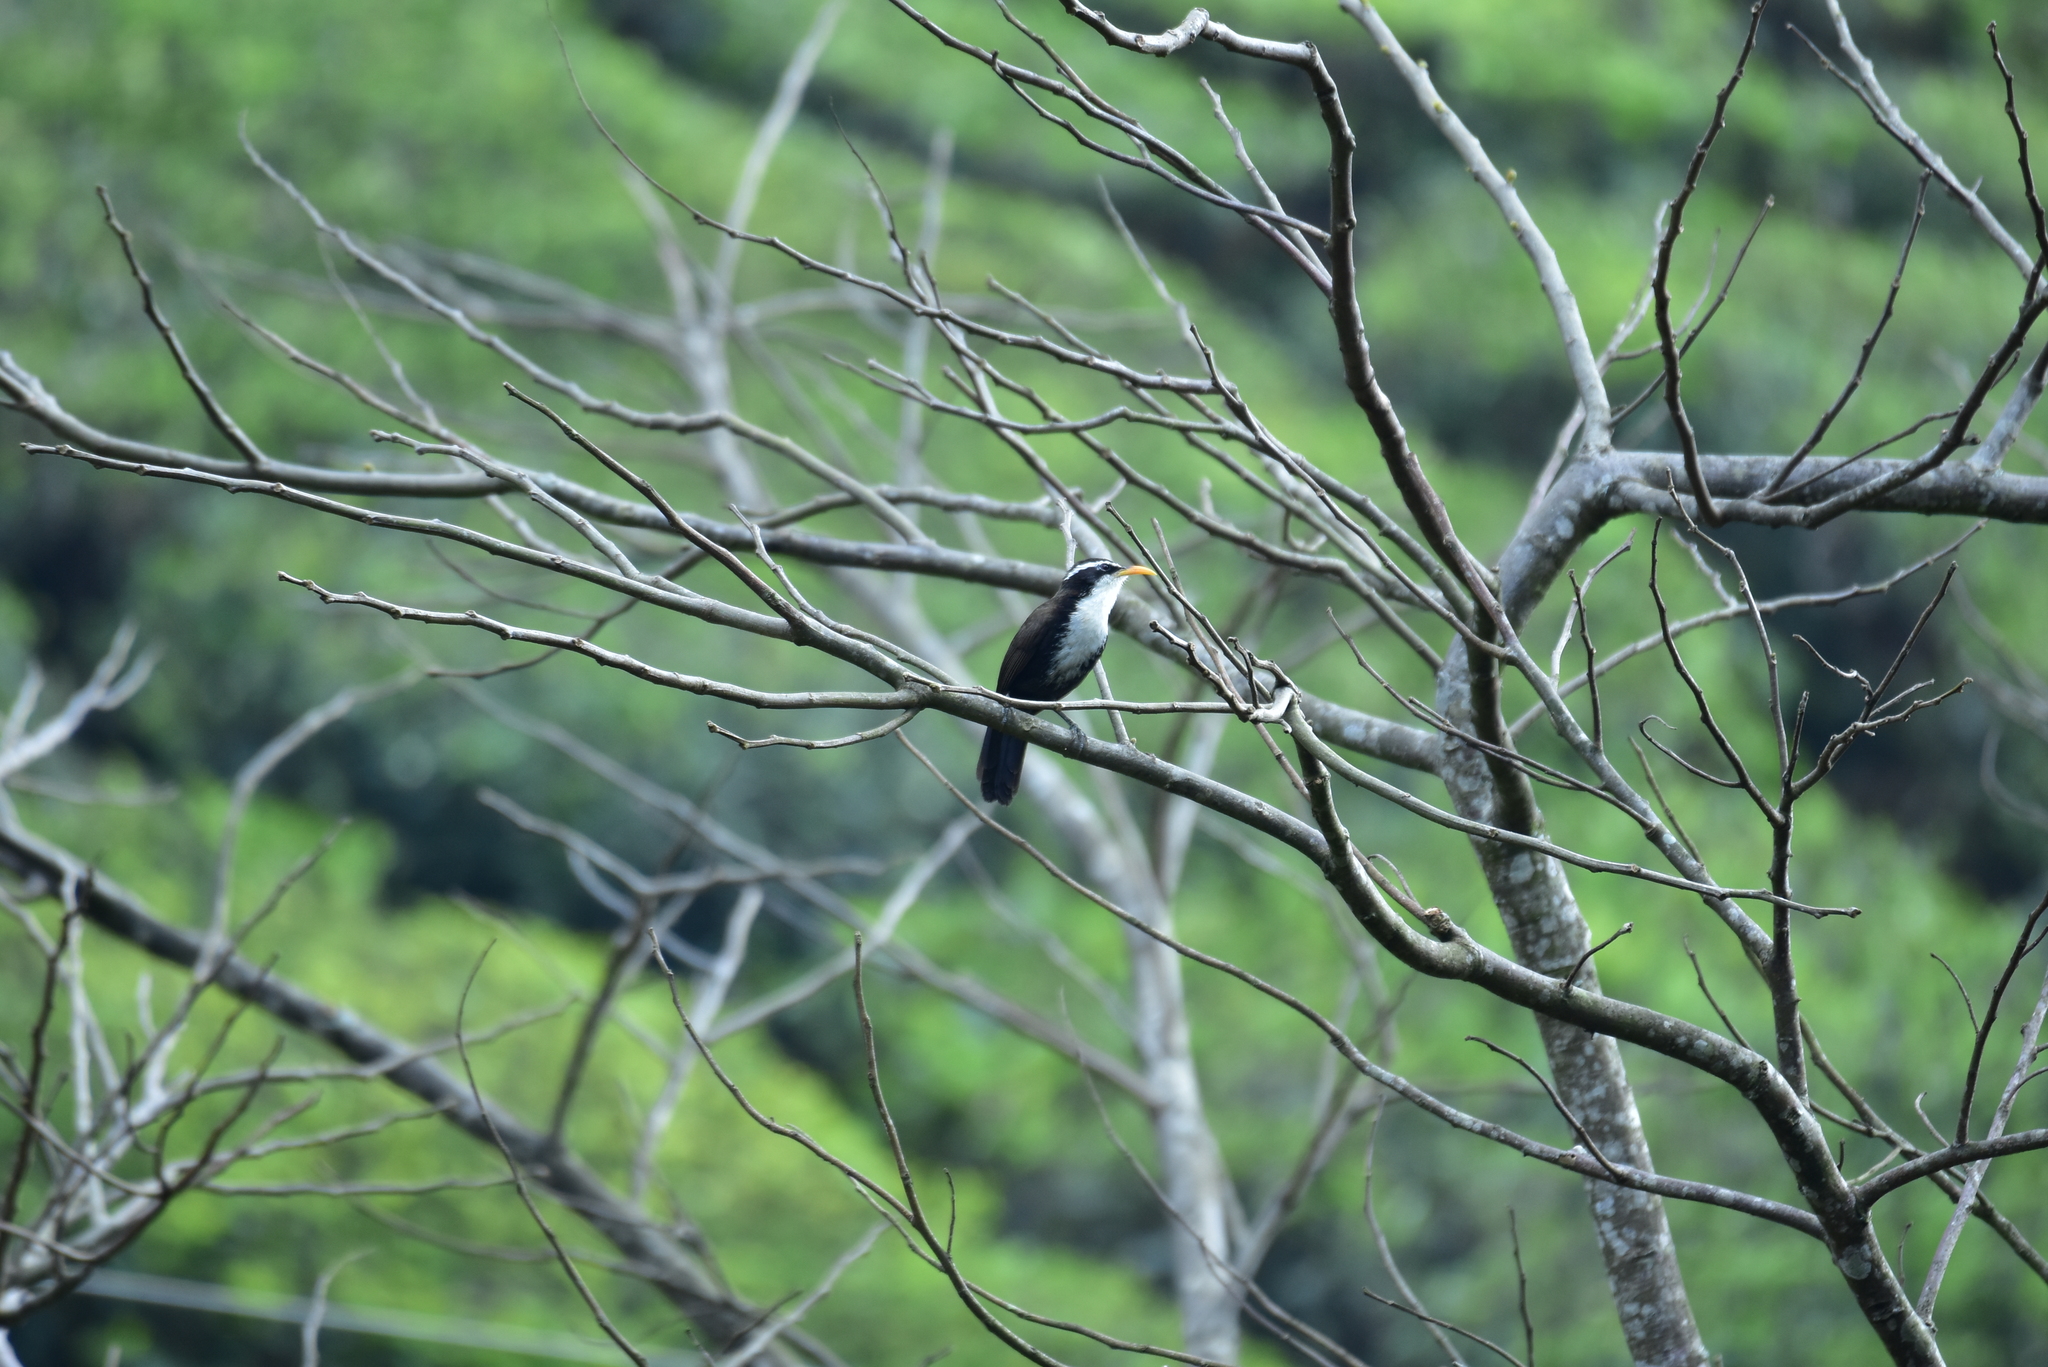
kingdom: Animalia
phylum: Chordata
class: Aves
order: Passeriformes
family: Timaliidae
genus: Pomatorhinus
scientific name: Pomatorhinus horsfieldii
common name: Indian scimitar babbler
